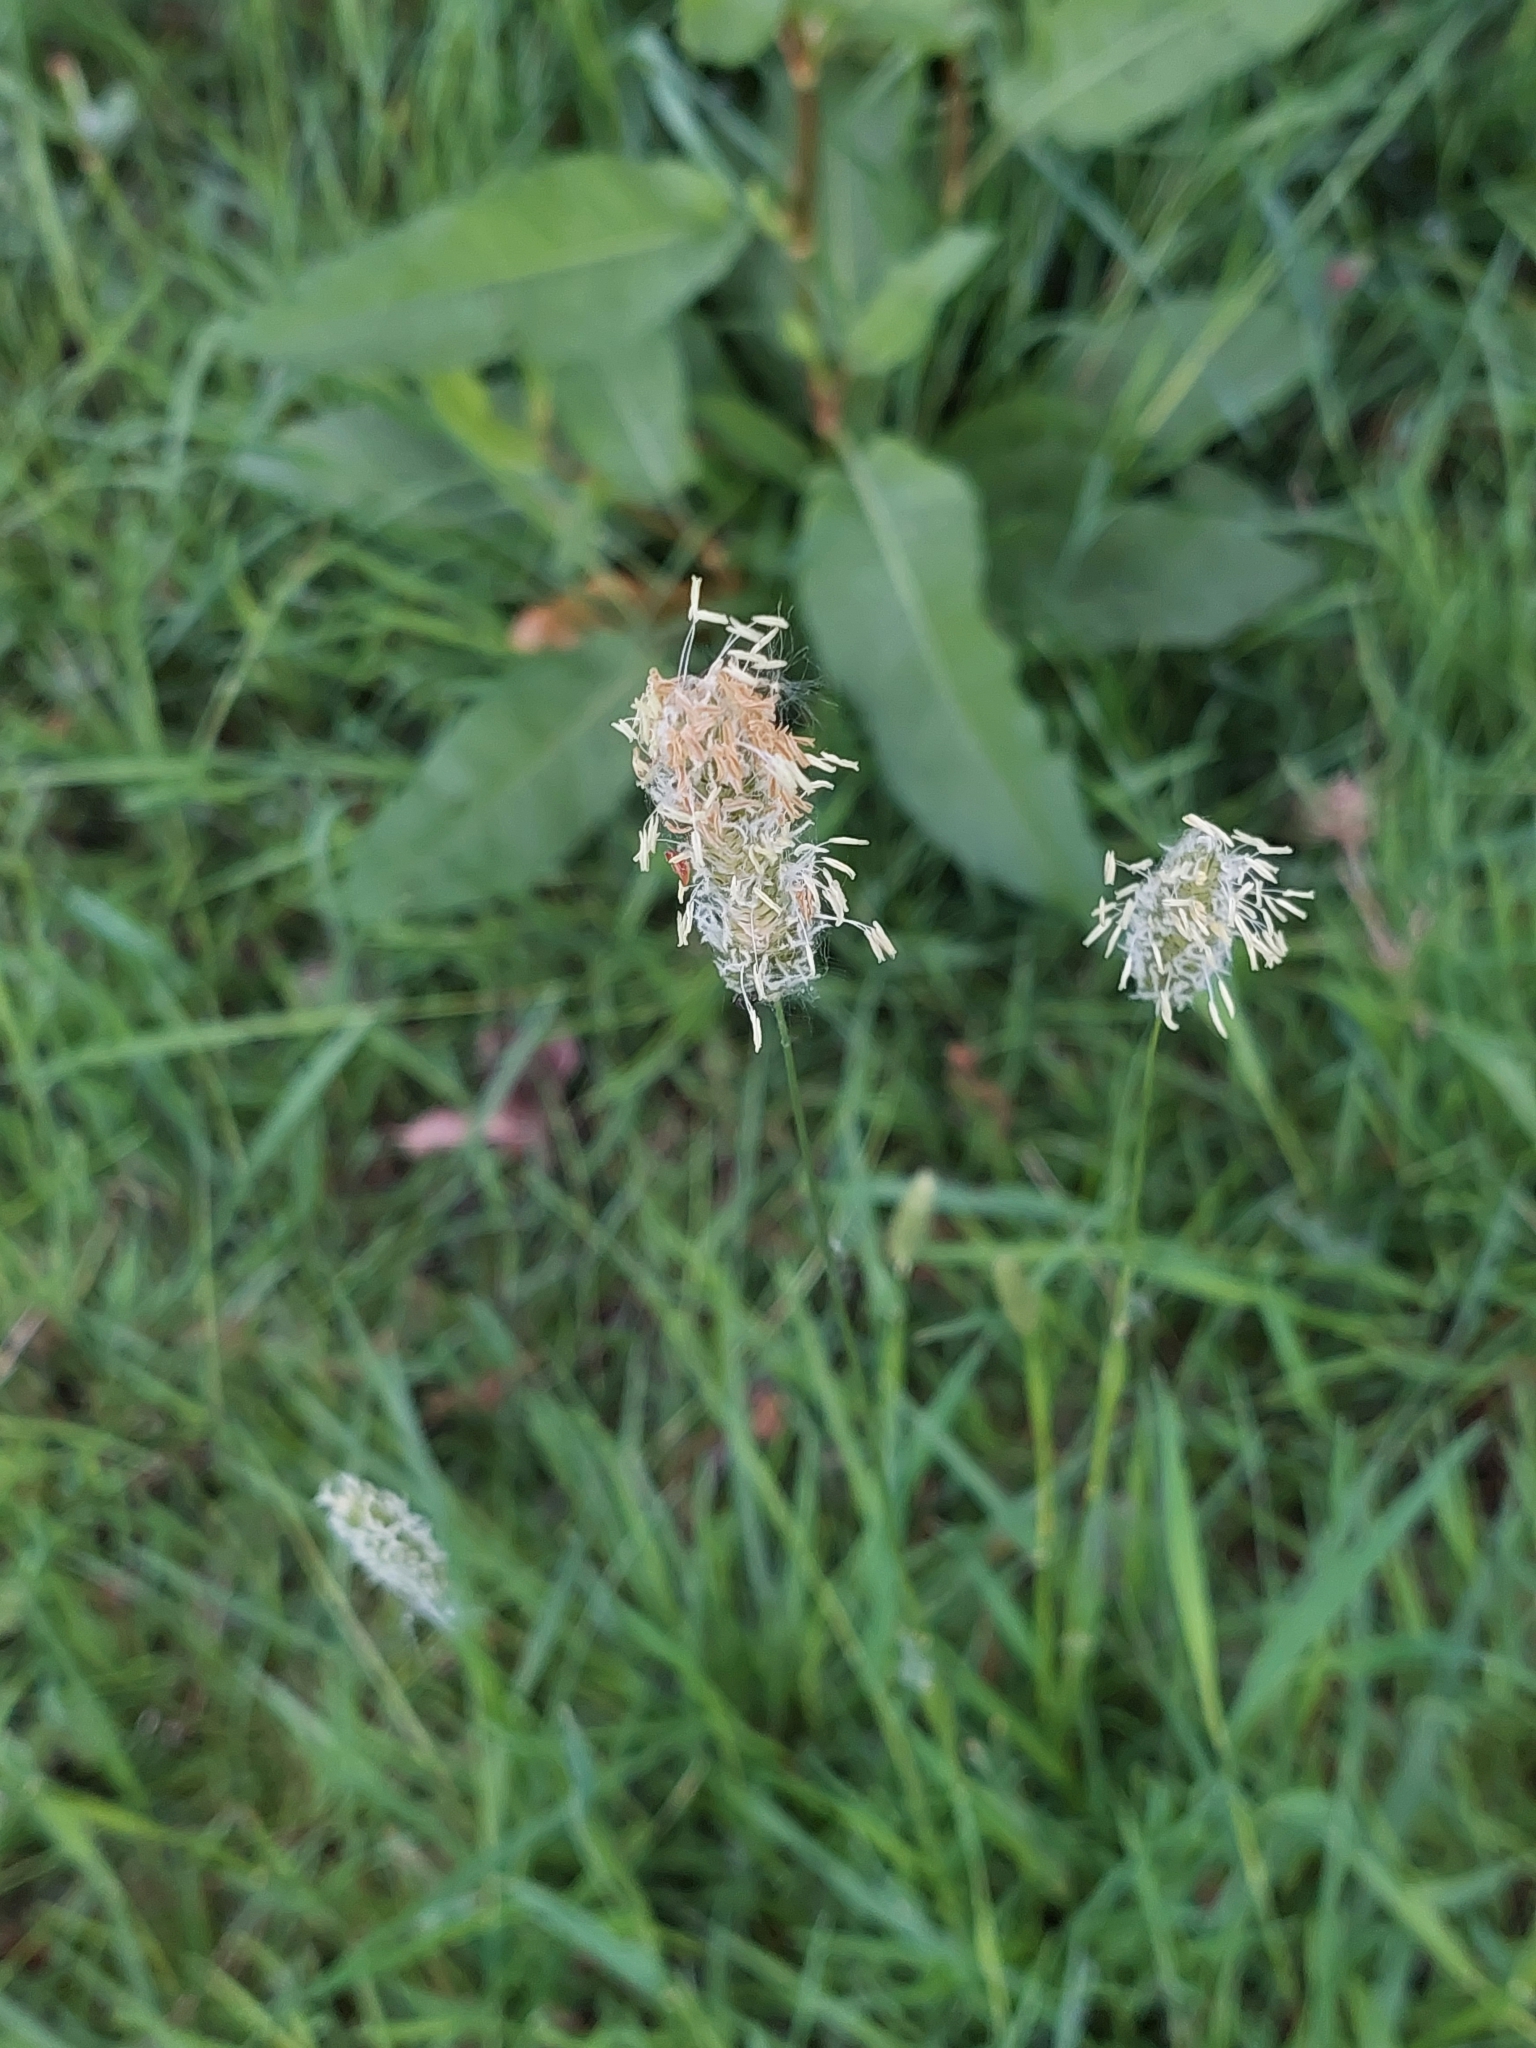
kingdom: Plantae
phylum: Tracheophyta
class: Liliopsida
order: Poales
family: Poaceae
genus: Alopecurus
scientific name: Alopecurus pratensis
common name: Meadow foxtail
